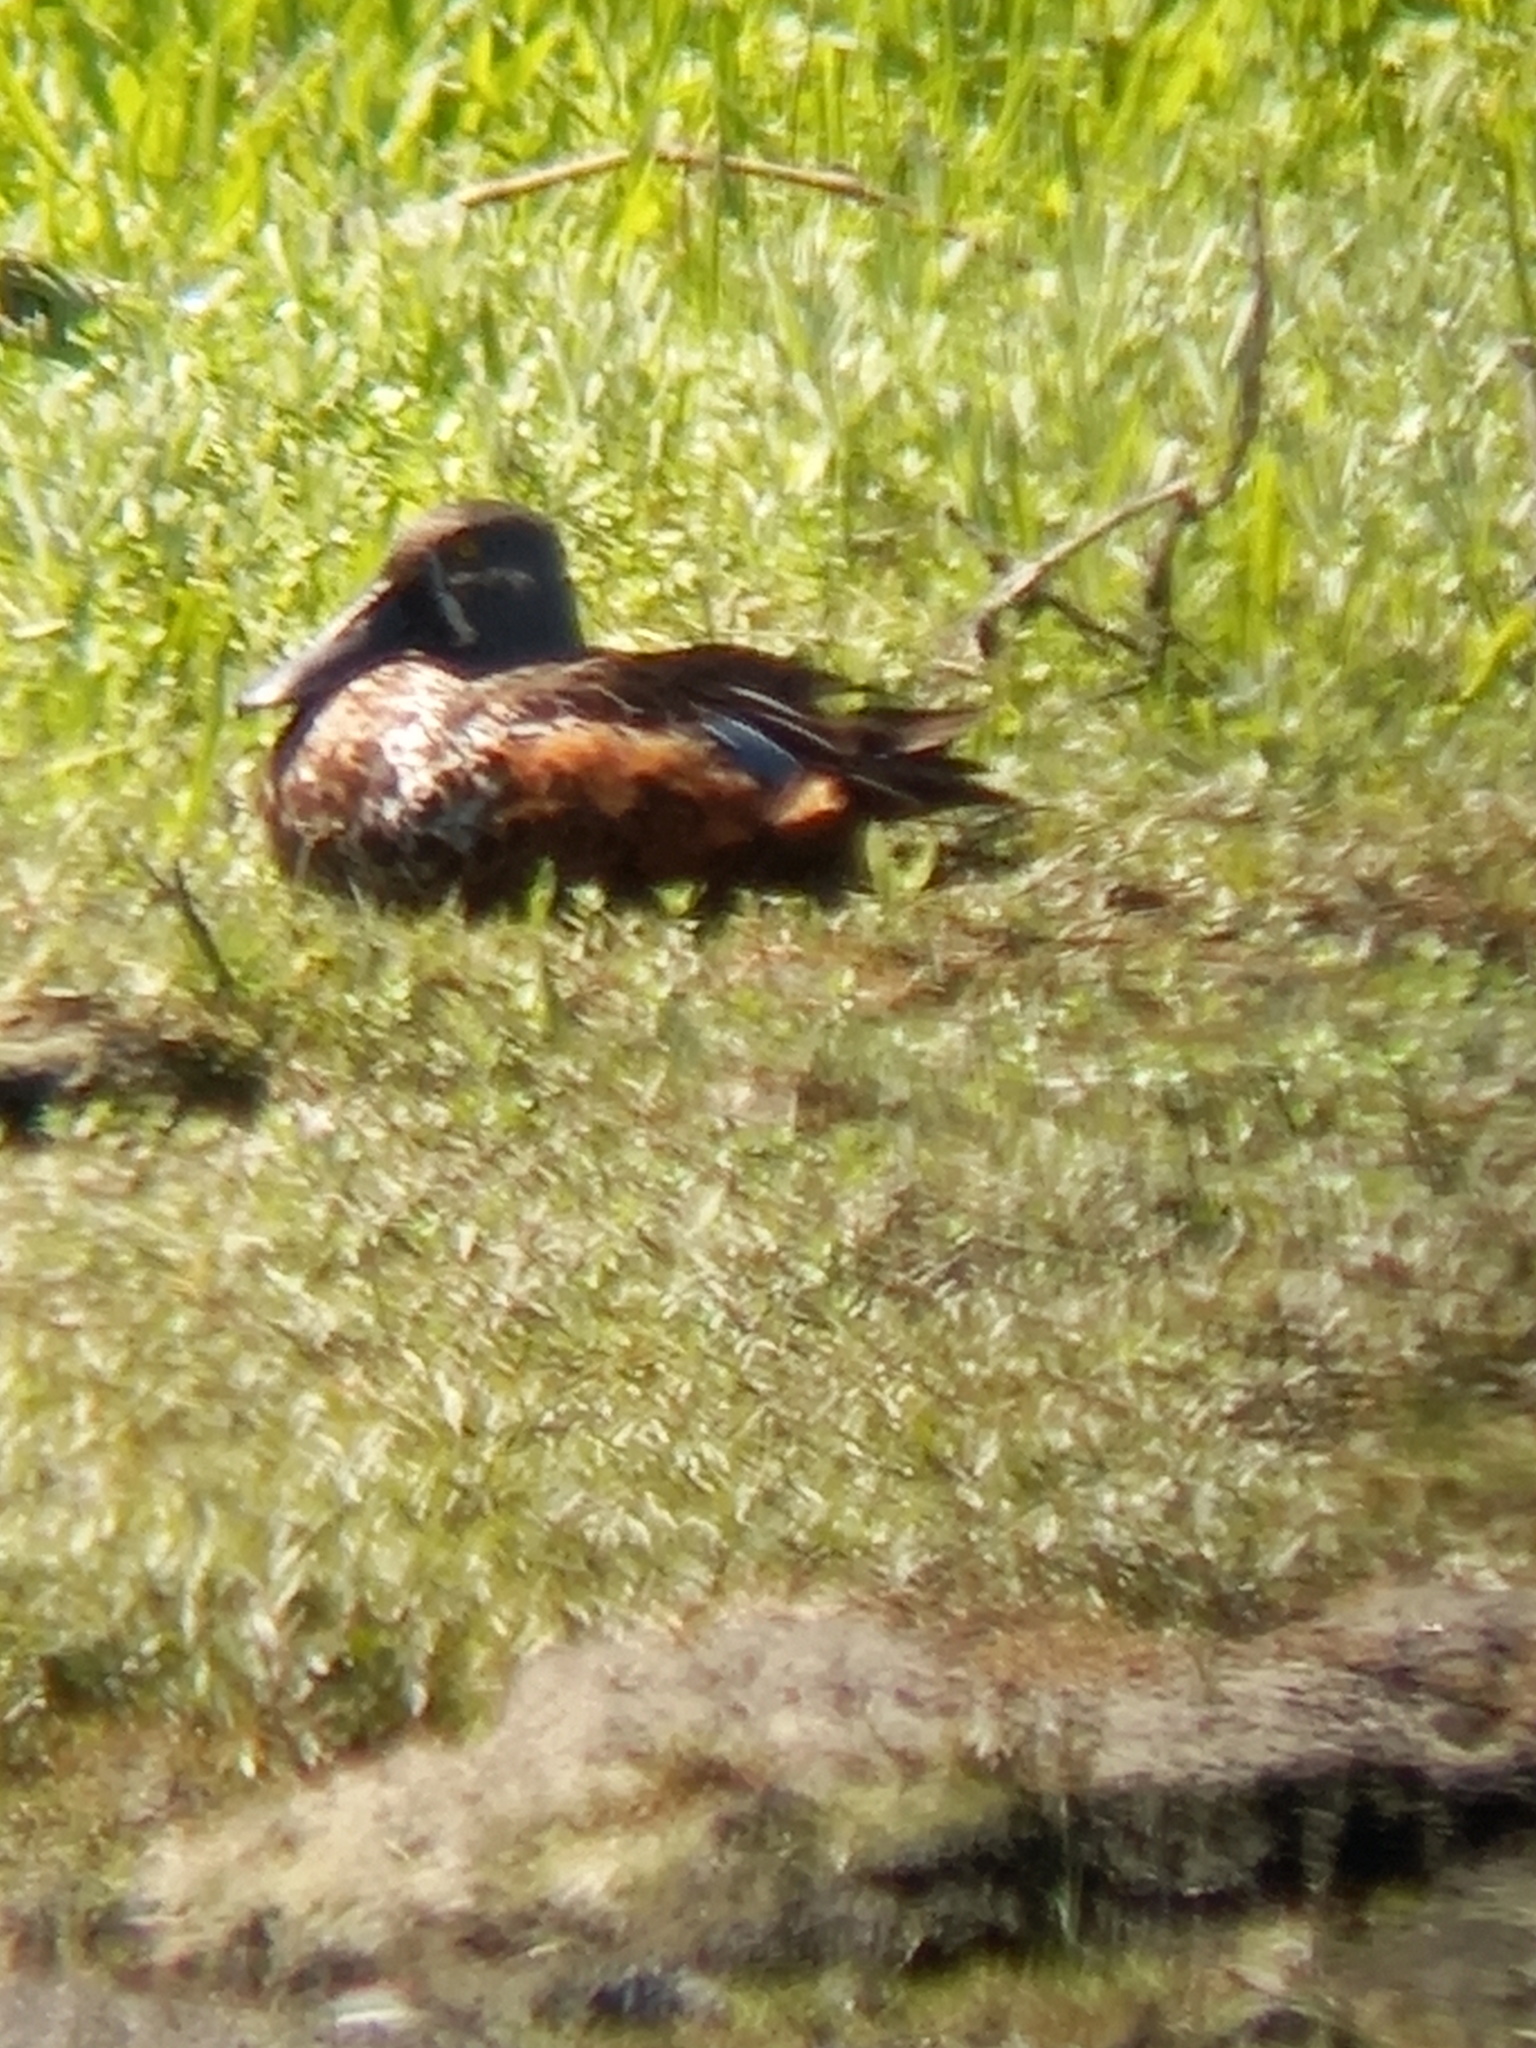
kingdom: Animalia
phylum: Chordata
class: Aves
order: Anseriformes
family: Anatidae
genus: Spatula
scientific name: Spatula rhynchotis
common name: Australian shoveler
